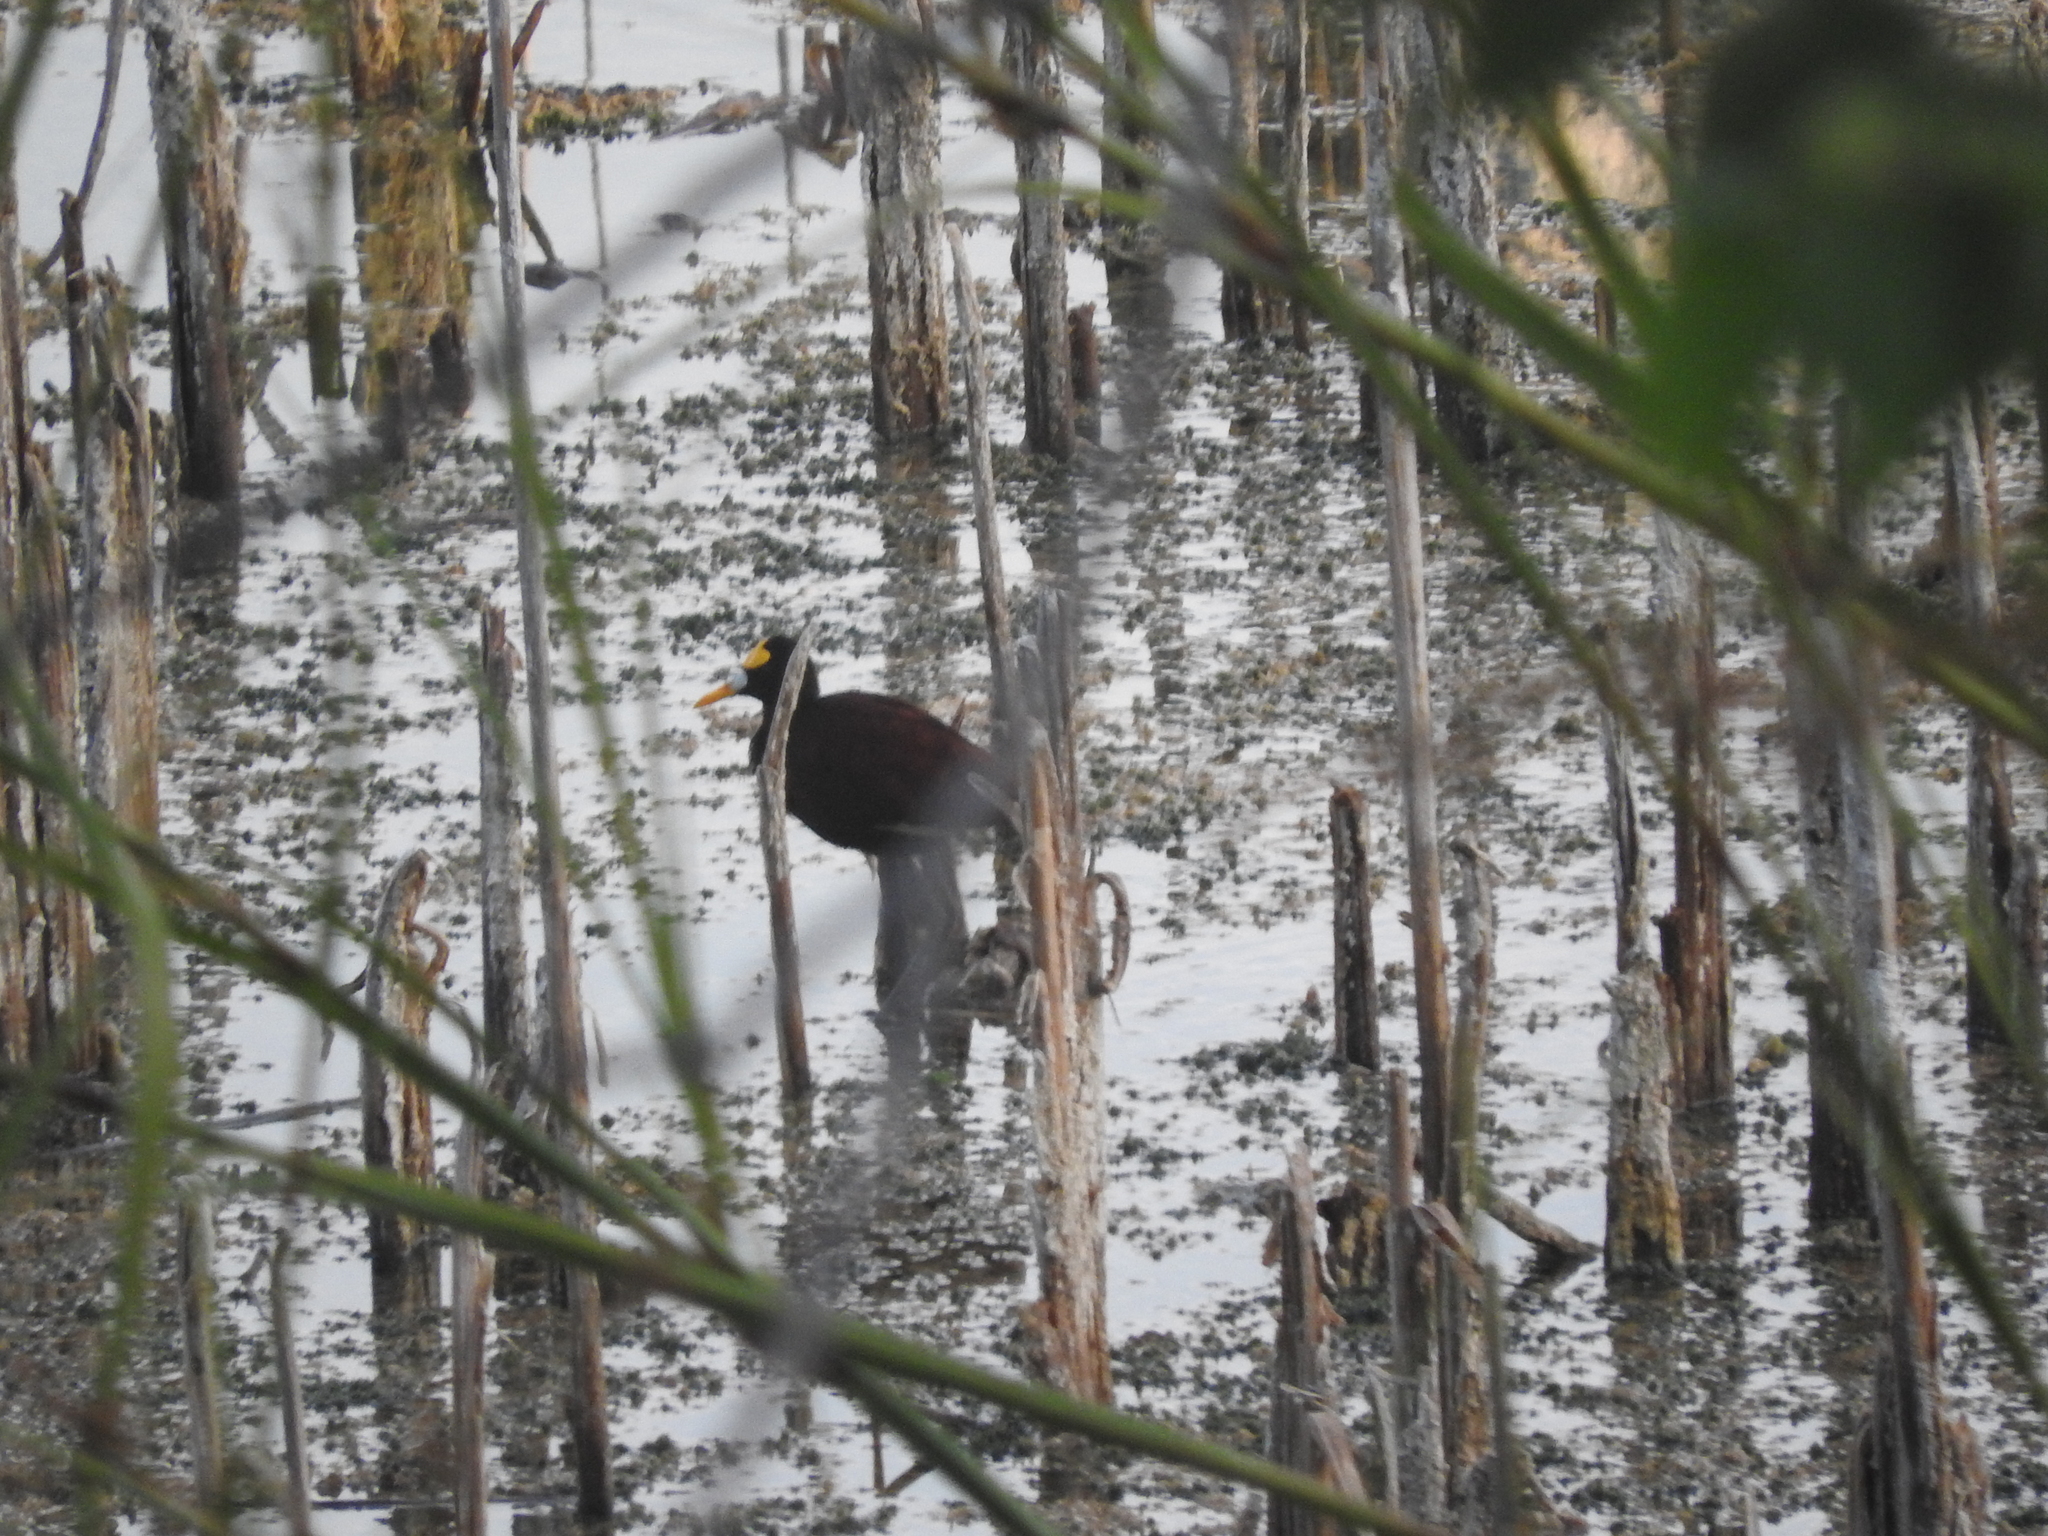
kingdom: Animalia
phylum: Chordata
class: Aves
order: Charadriiformes
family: Jacanidae
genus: Jacana
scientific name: Jacana spinosa
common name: Northern jacana
